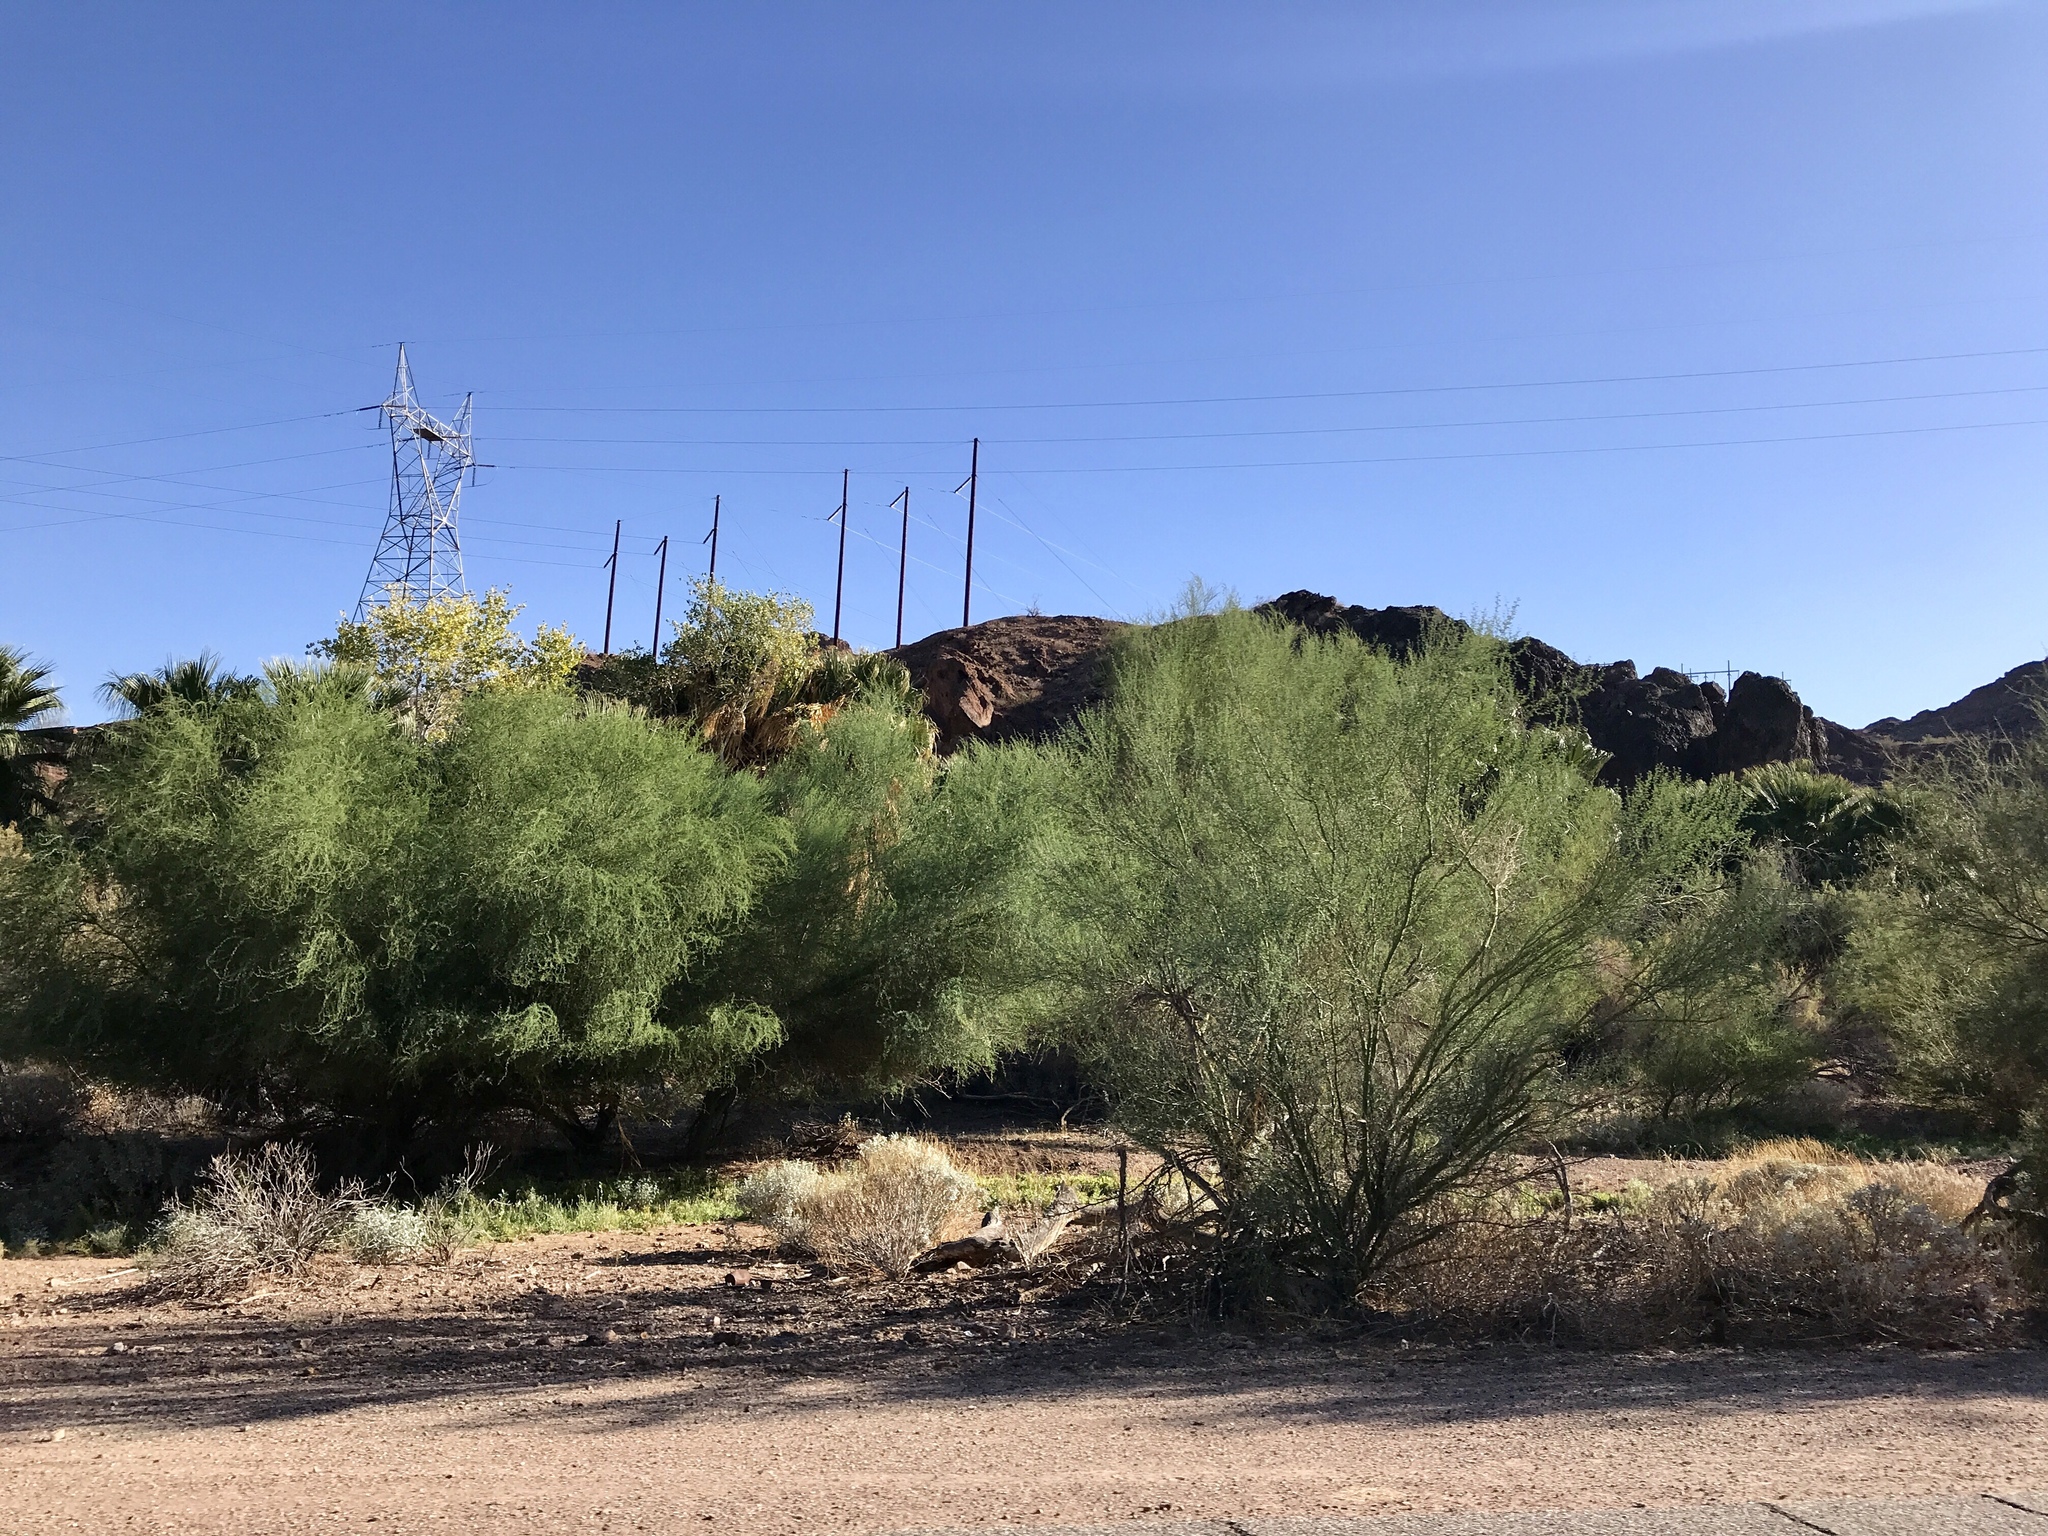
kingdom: Plantae
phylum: Tracheophyta
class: Magnoliopsida
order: Fabales
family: Fabaceae
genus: Parkinsonia
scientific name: Parkinsonia florida
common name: Blue paloverde
